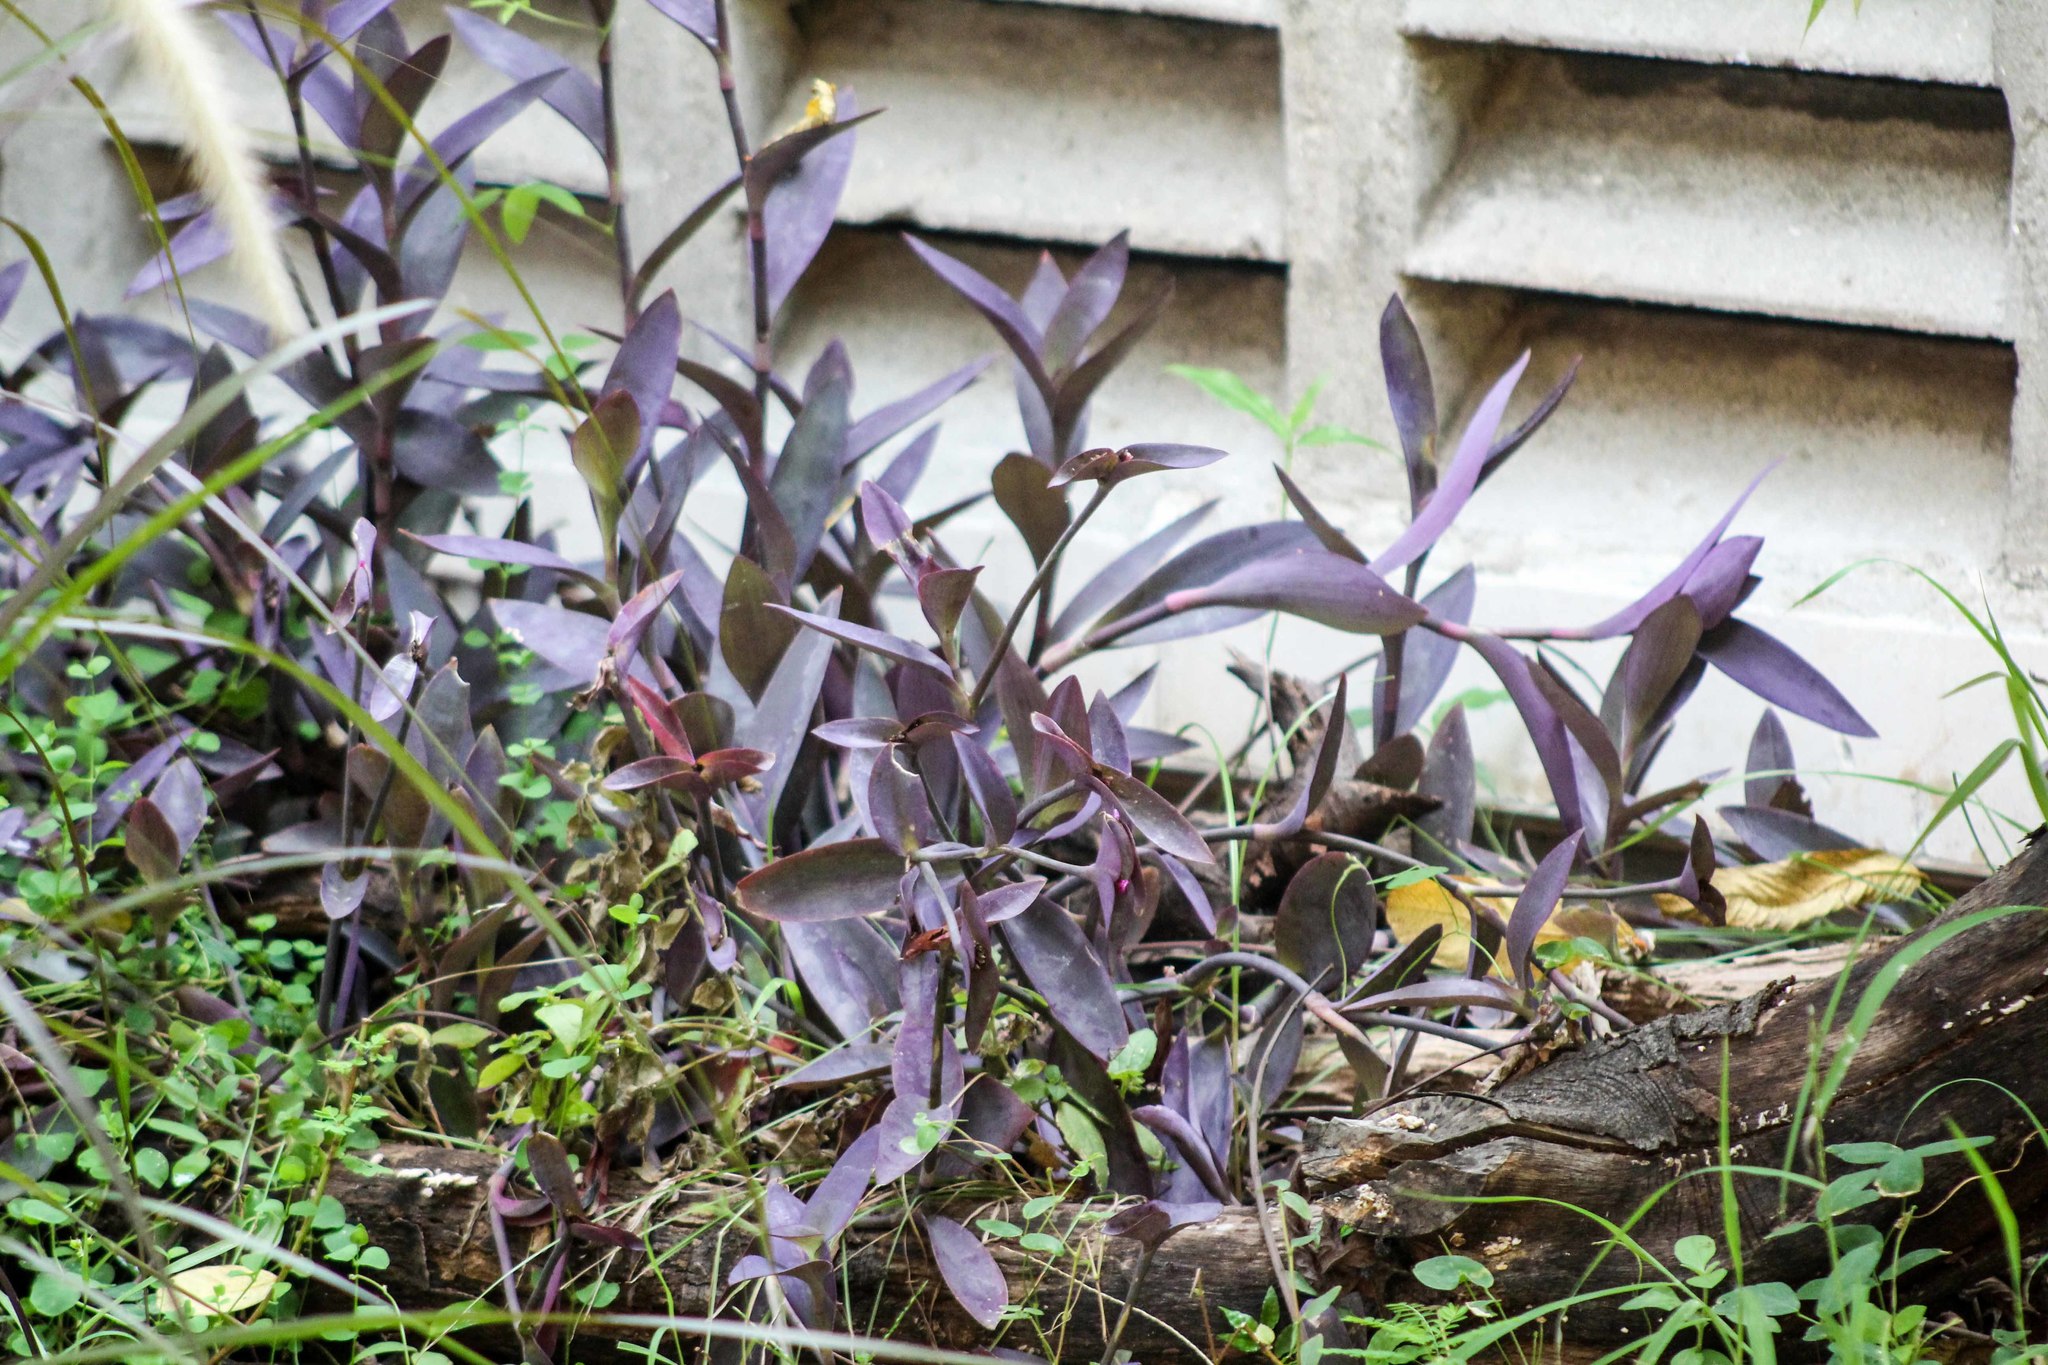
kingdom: Plantae
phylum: Tracheophyta
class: Liliopsida
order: Commelinales
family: Commelinaceae
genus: Tradescantia
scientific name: Tradescantia pallida
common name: Purpleheart
